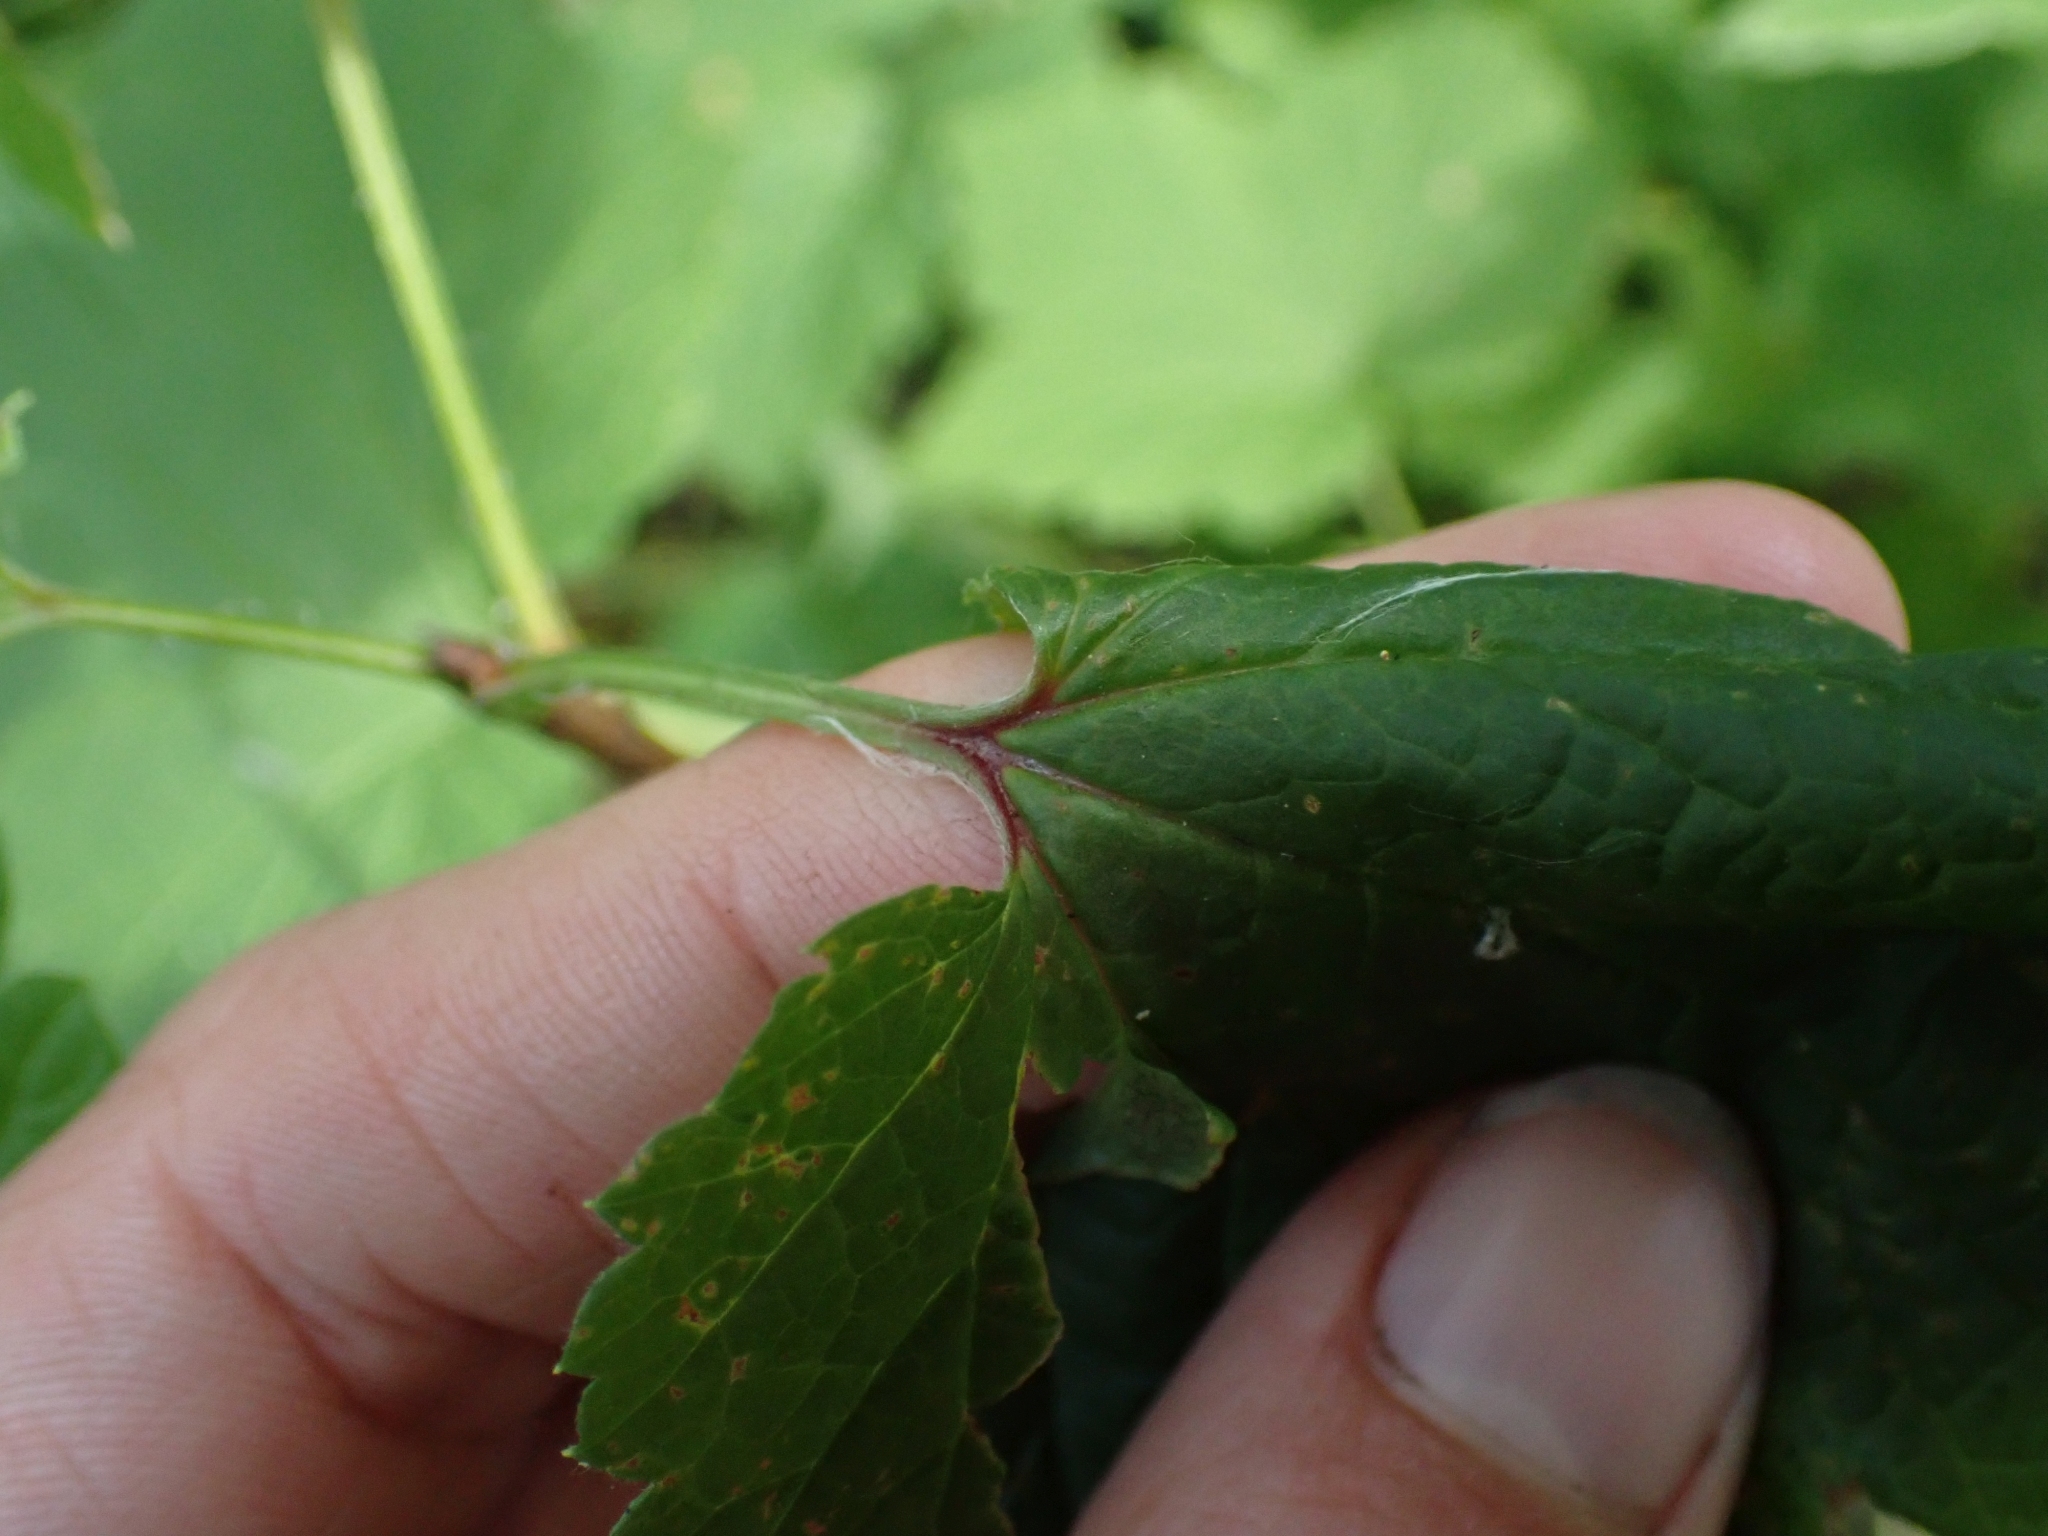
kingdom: Plantae
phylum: Tracheophyta
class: Magnoliopsida
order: Saxifragales
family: Grossulariaceae
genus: Ribes
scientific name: Ribes triste
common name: Swamp red currant
